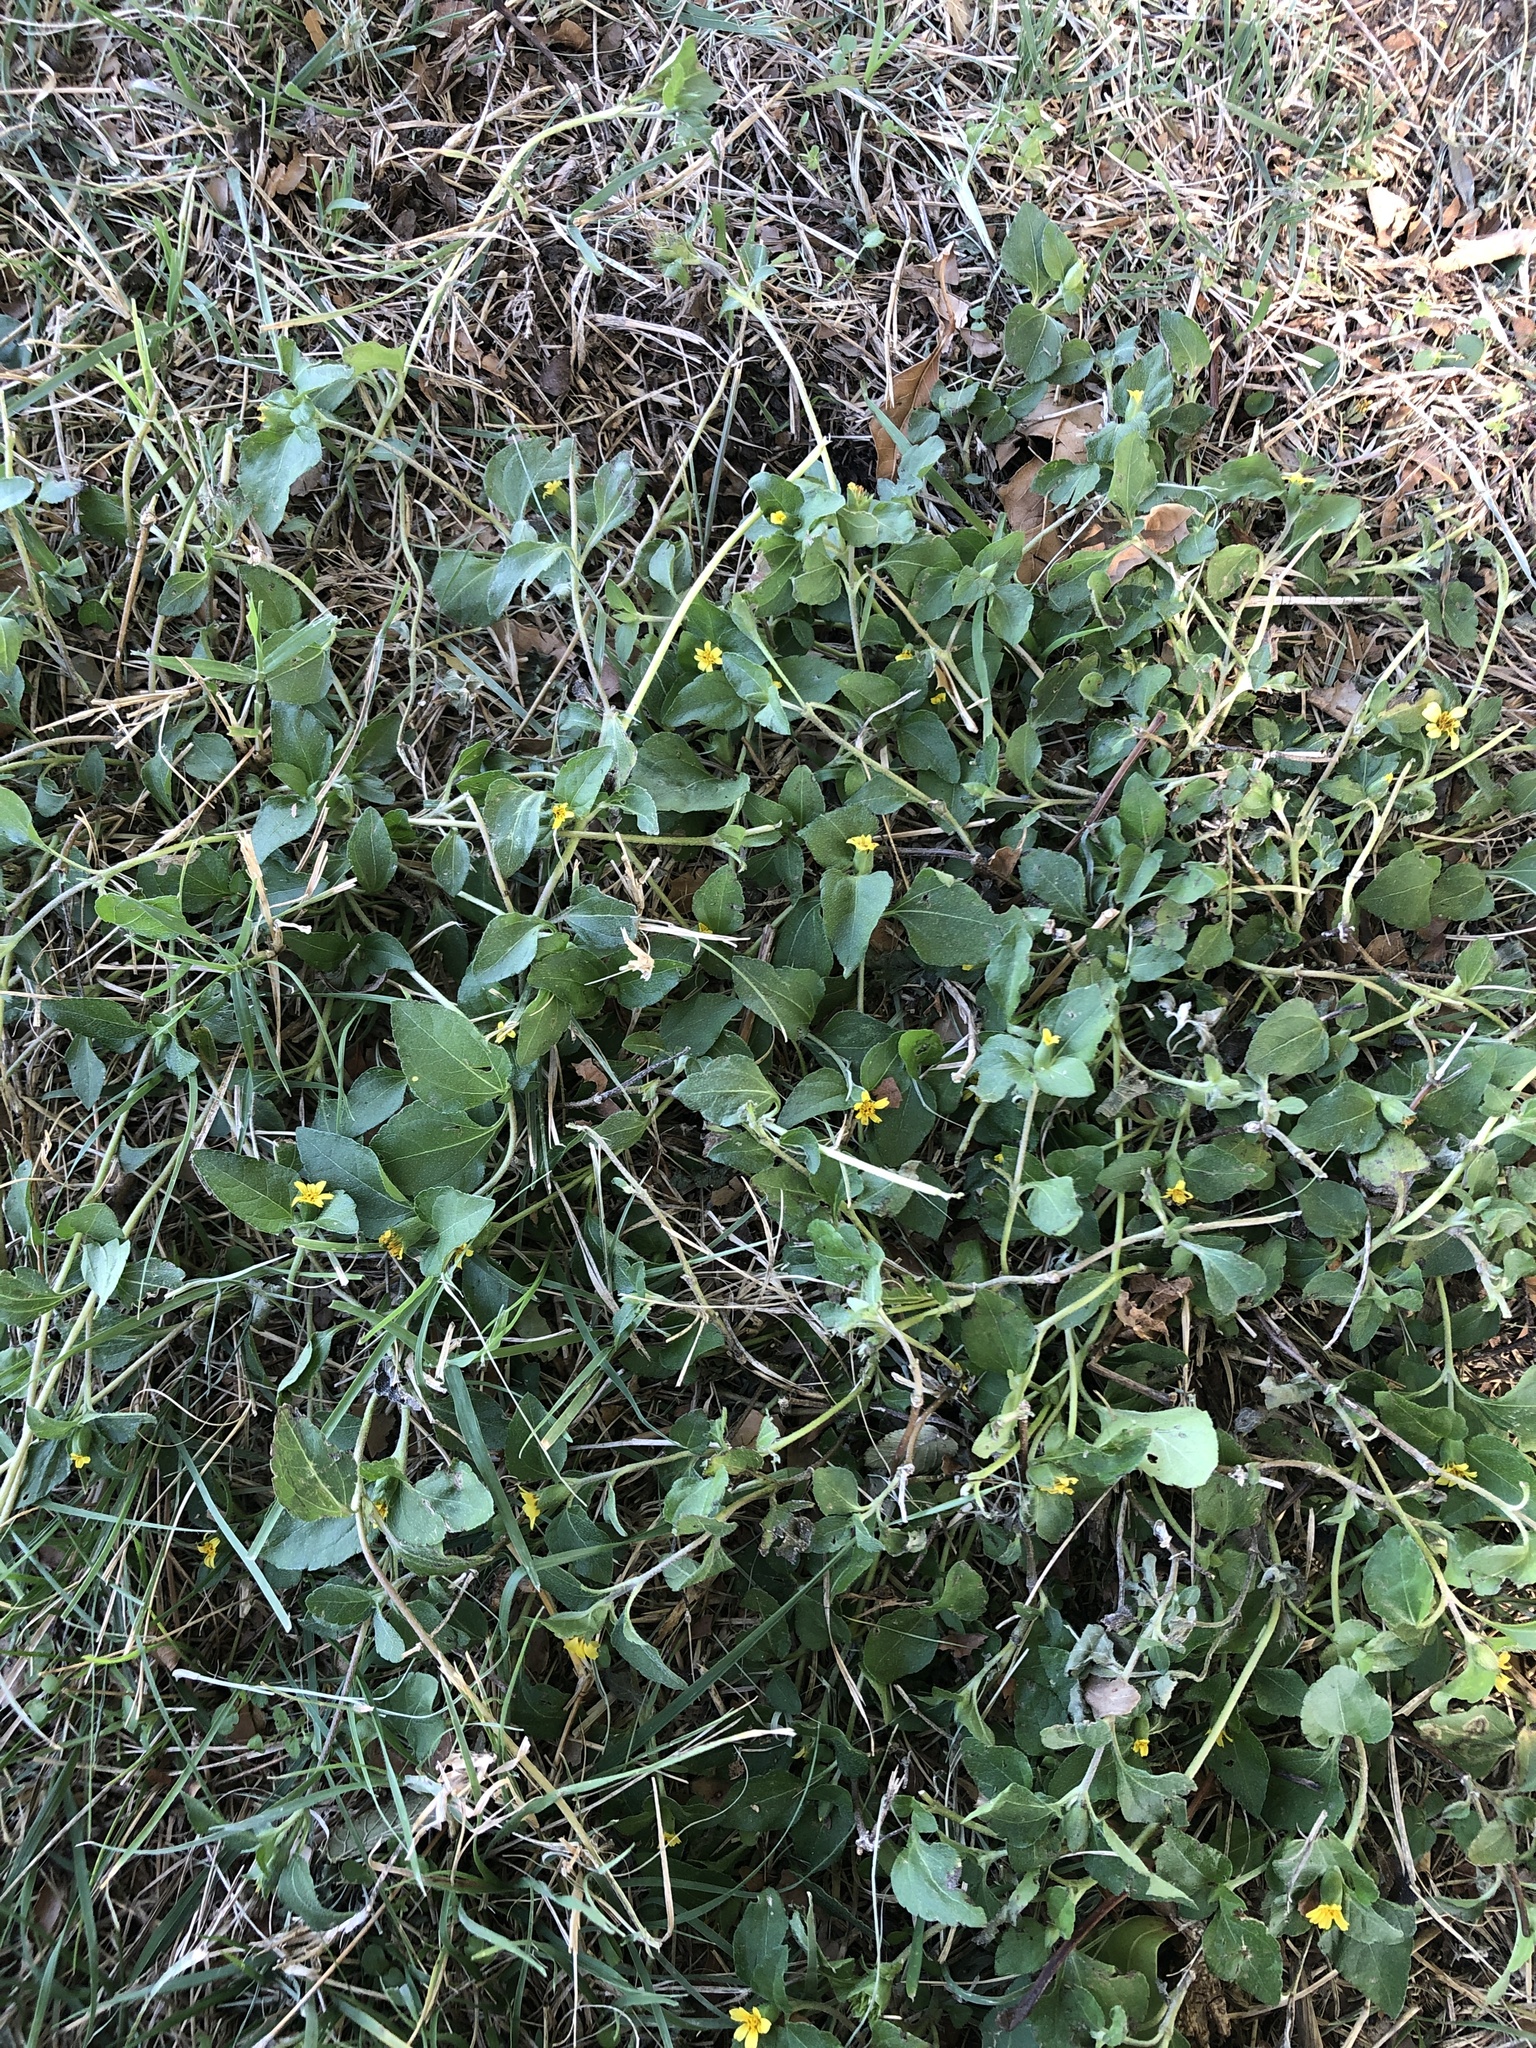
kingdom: Plantae
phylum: Tracheophyta
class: Magnoliopsida
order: Asterales
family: Asteraceae
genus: Calyptocarpus
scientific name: Calyptocarpus vialis
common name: Straggler daisy
